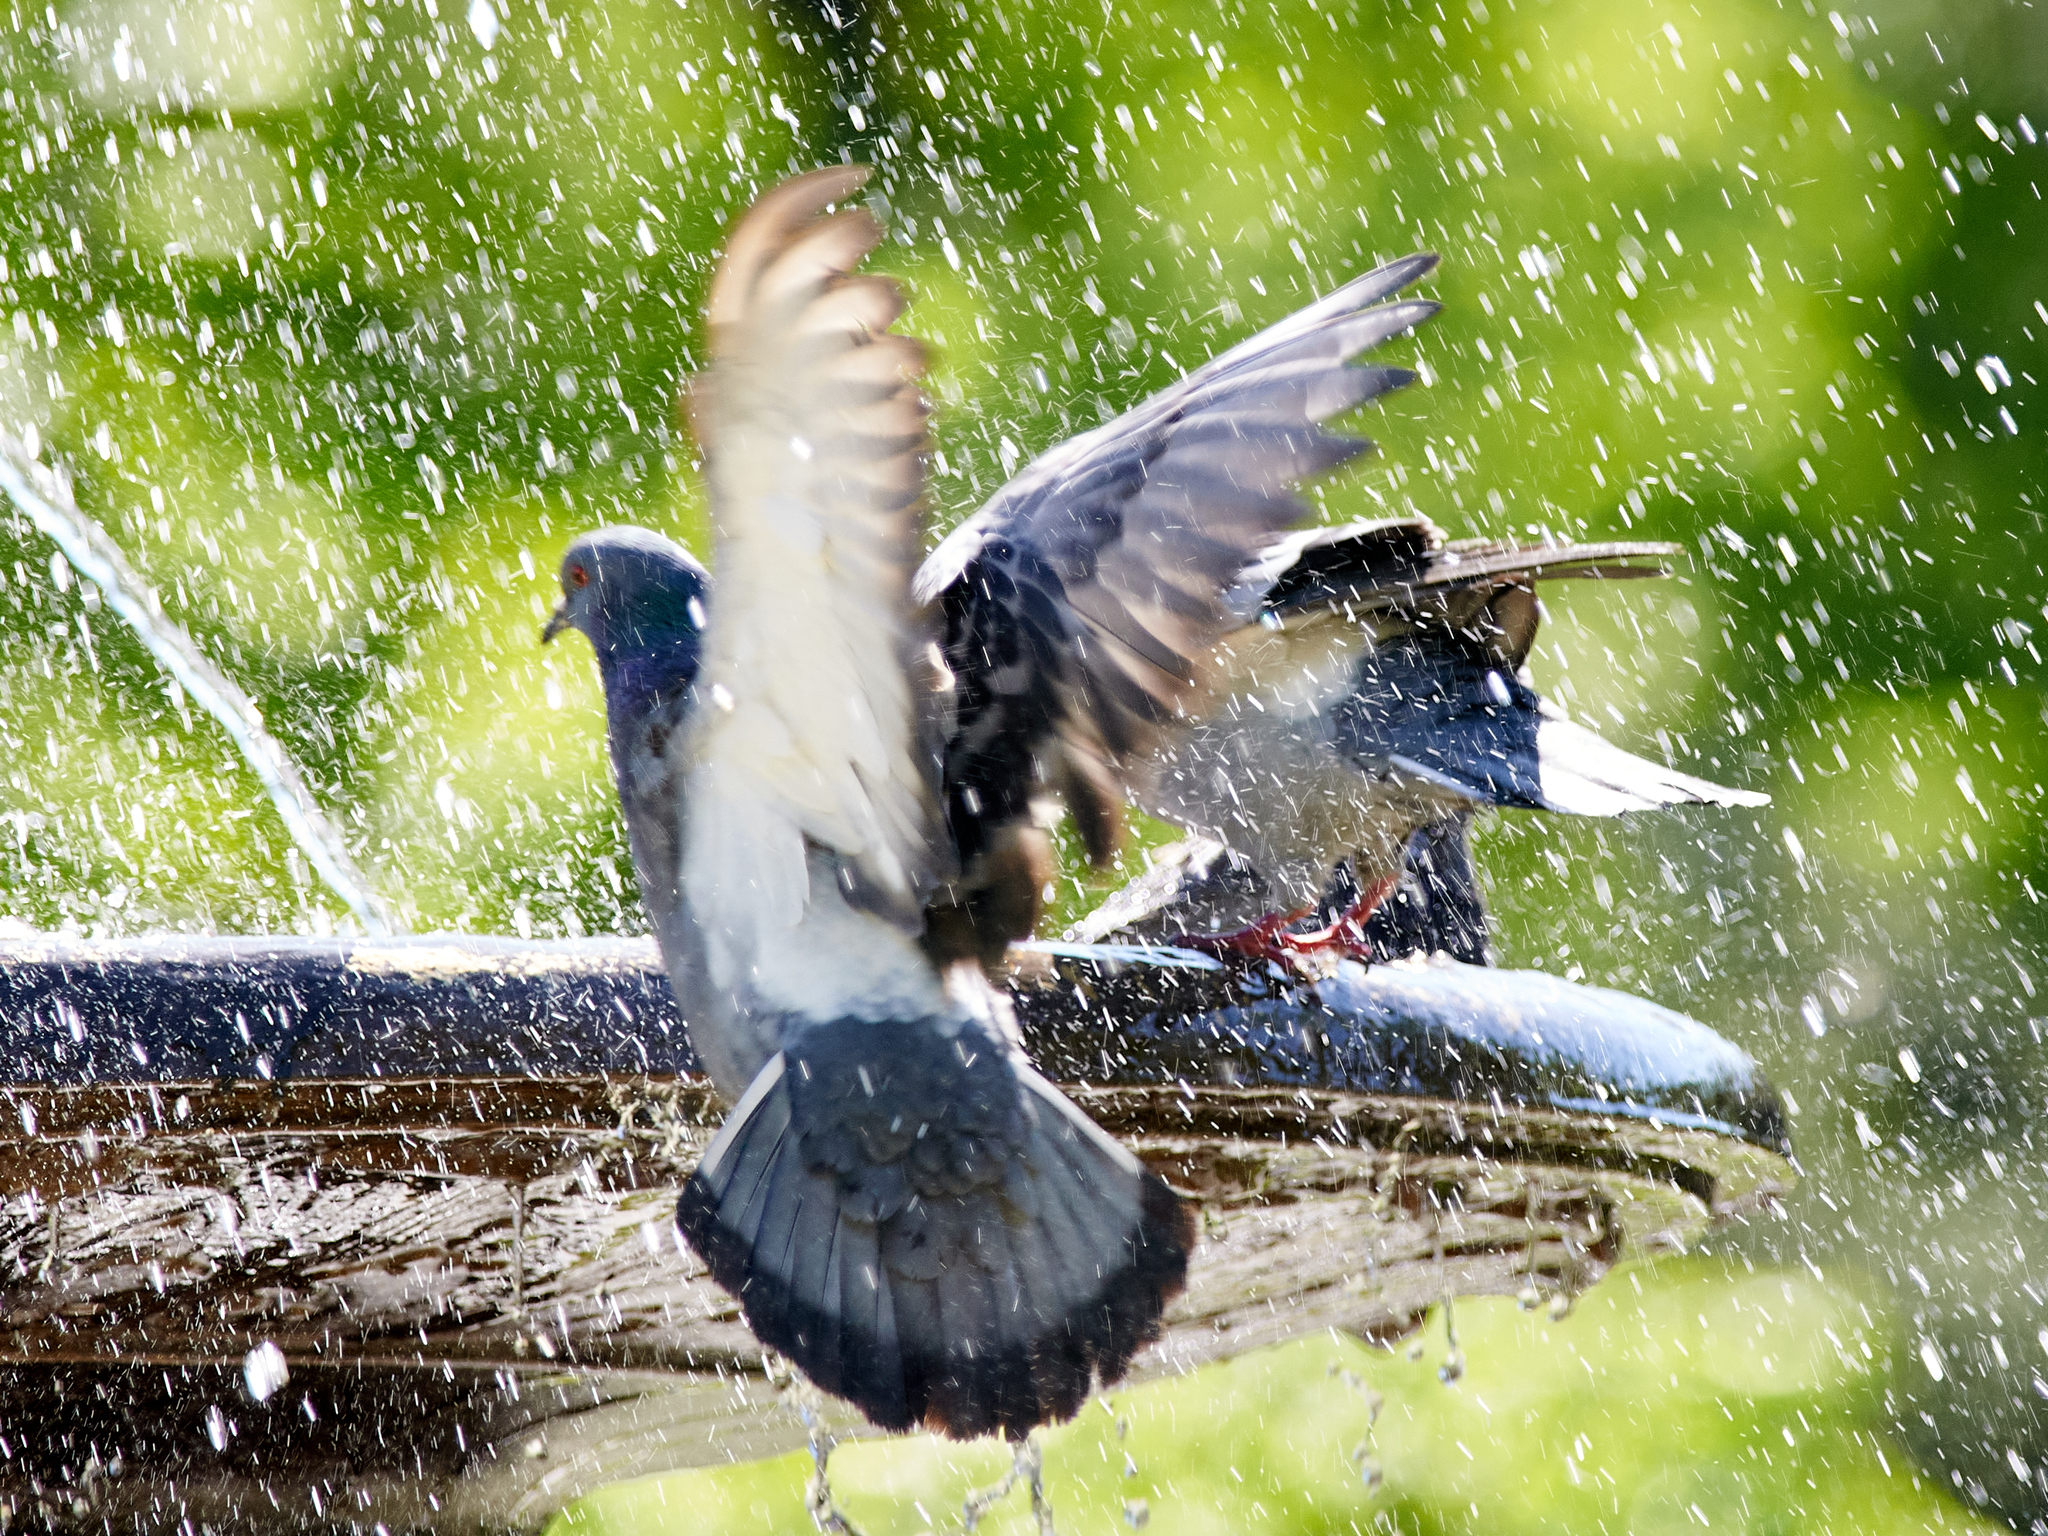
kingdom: Animalia
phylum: Chordata
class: Aves
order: Columbiformes
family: Columbidae
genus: Columba
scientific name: Columba livia
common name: Rock pigeon
